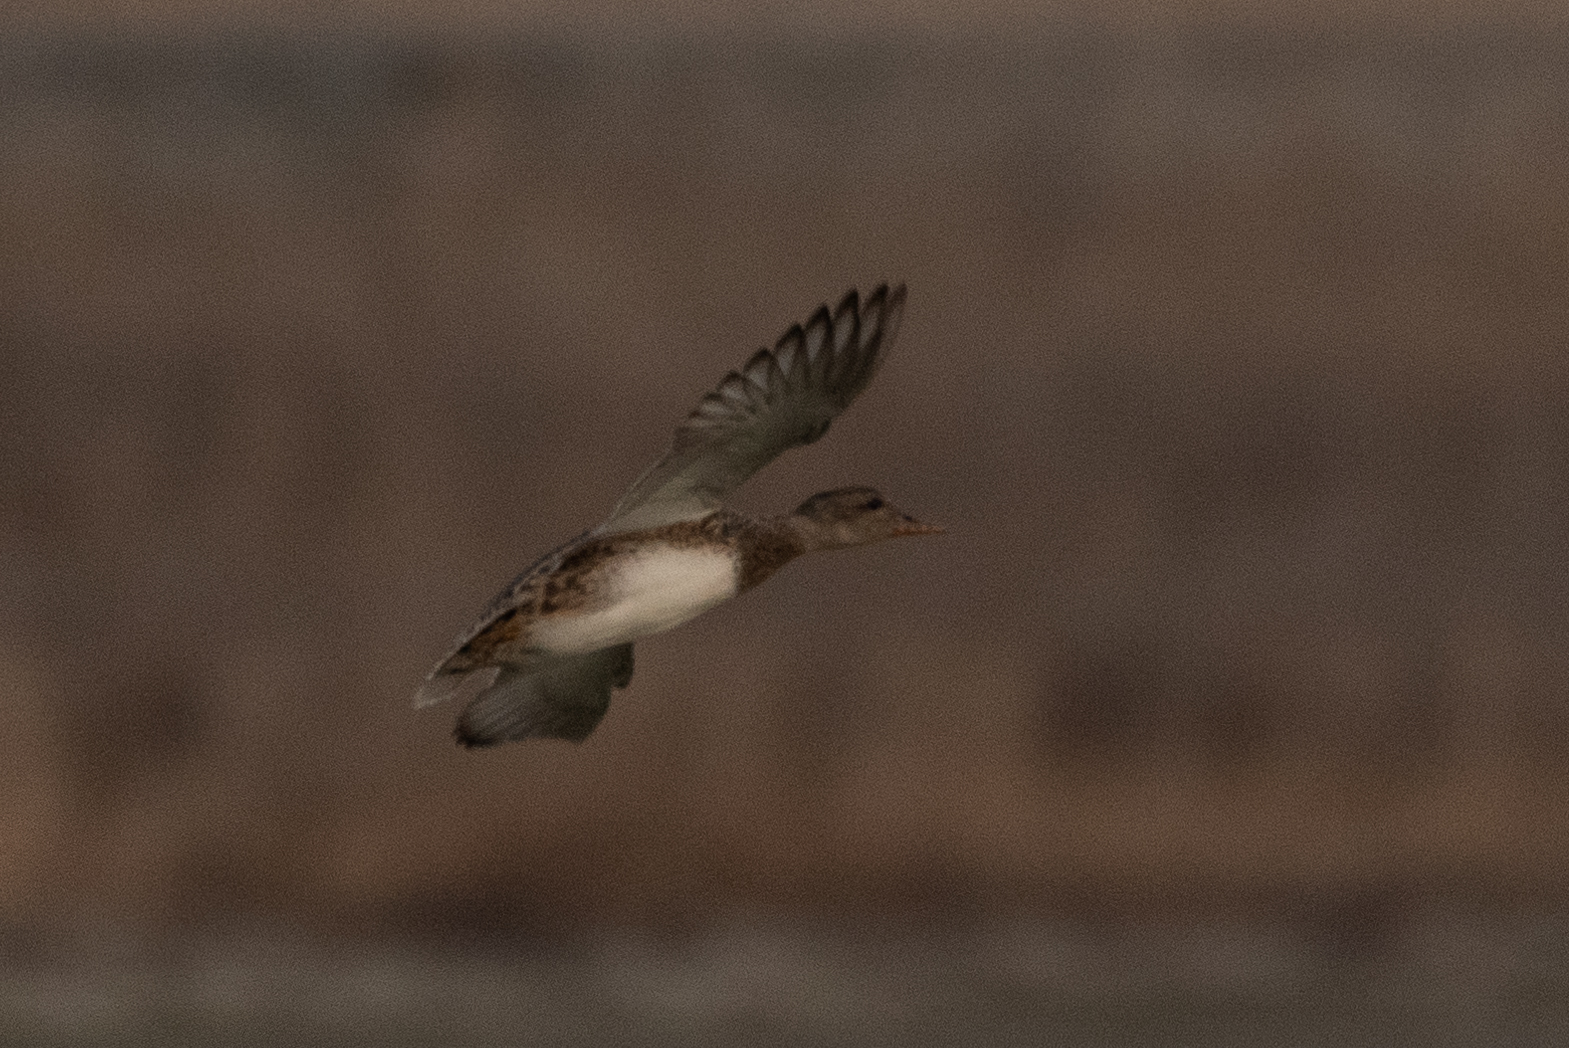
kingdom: Animalia
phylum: Chordata
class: Aves
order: Anseriformes
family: Anatidae
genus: Mareca
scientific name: Mareca strepera
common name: Gadwall
